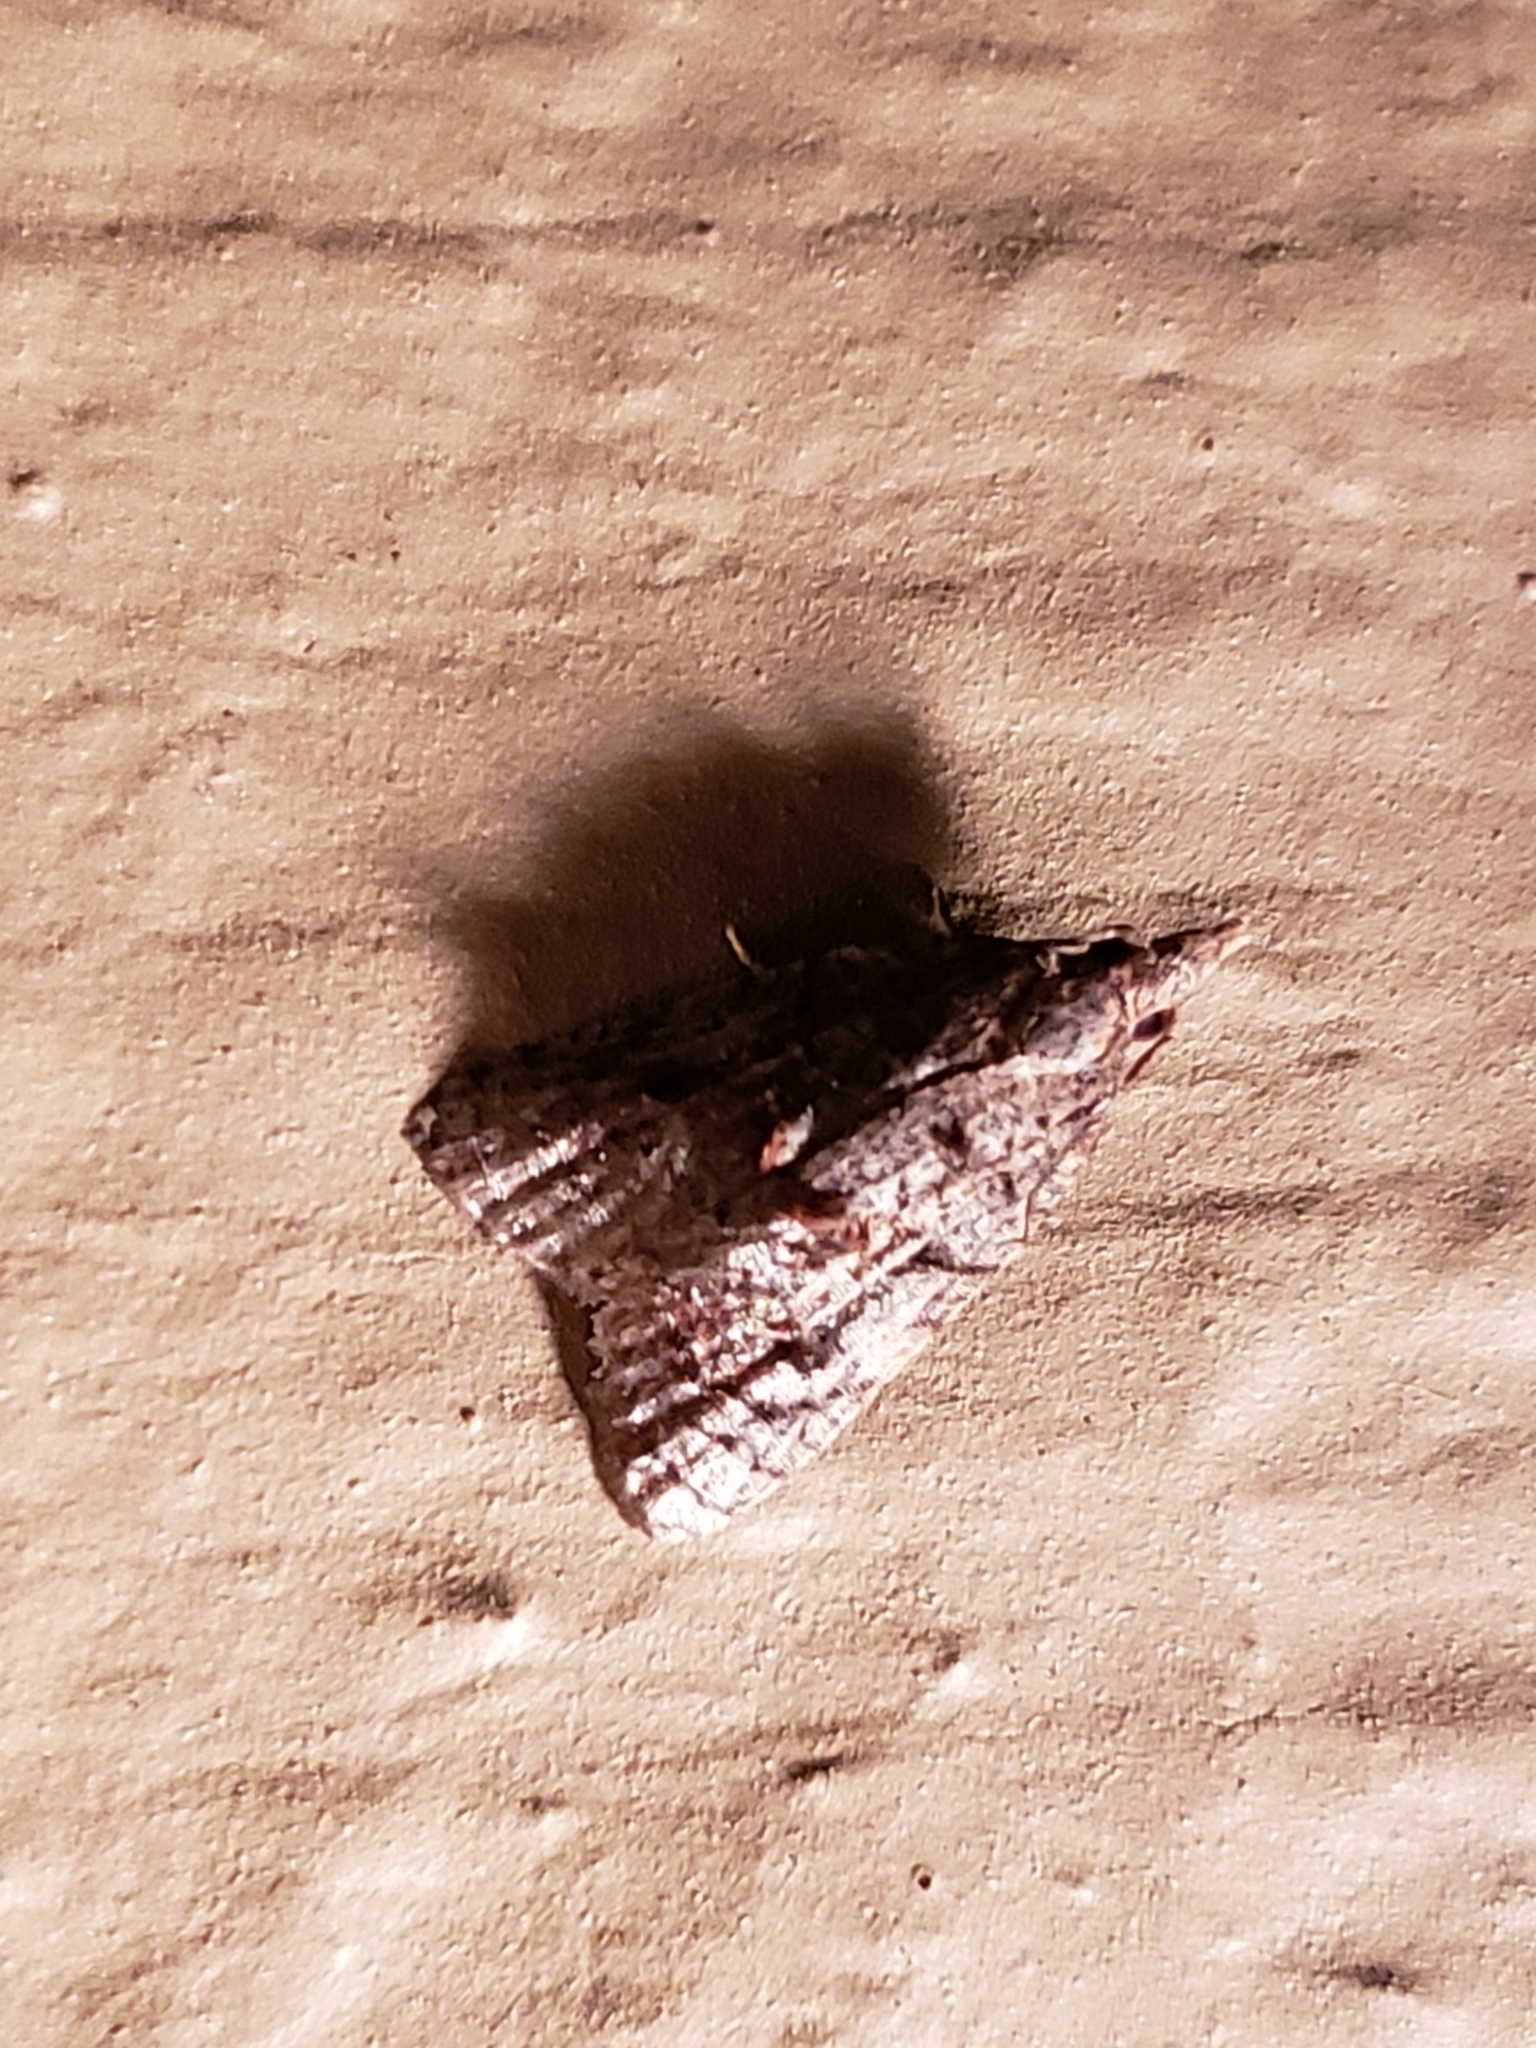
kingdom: Animalia
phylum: Arthropoda
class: Insecta
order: Lepidoptera
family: Tortricidae
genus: Platynota
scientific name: Platynota idaeusalis
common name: Tufted apple bud moth
